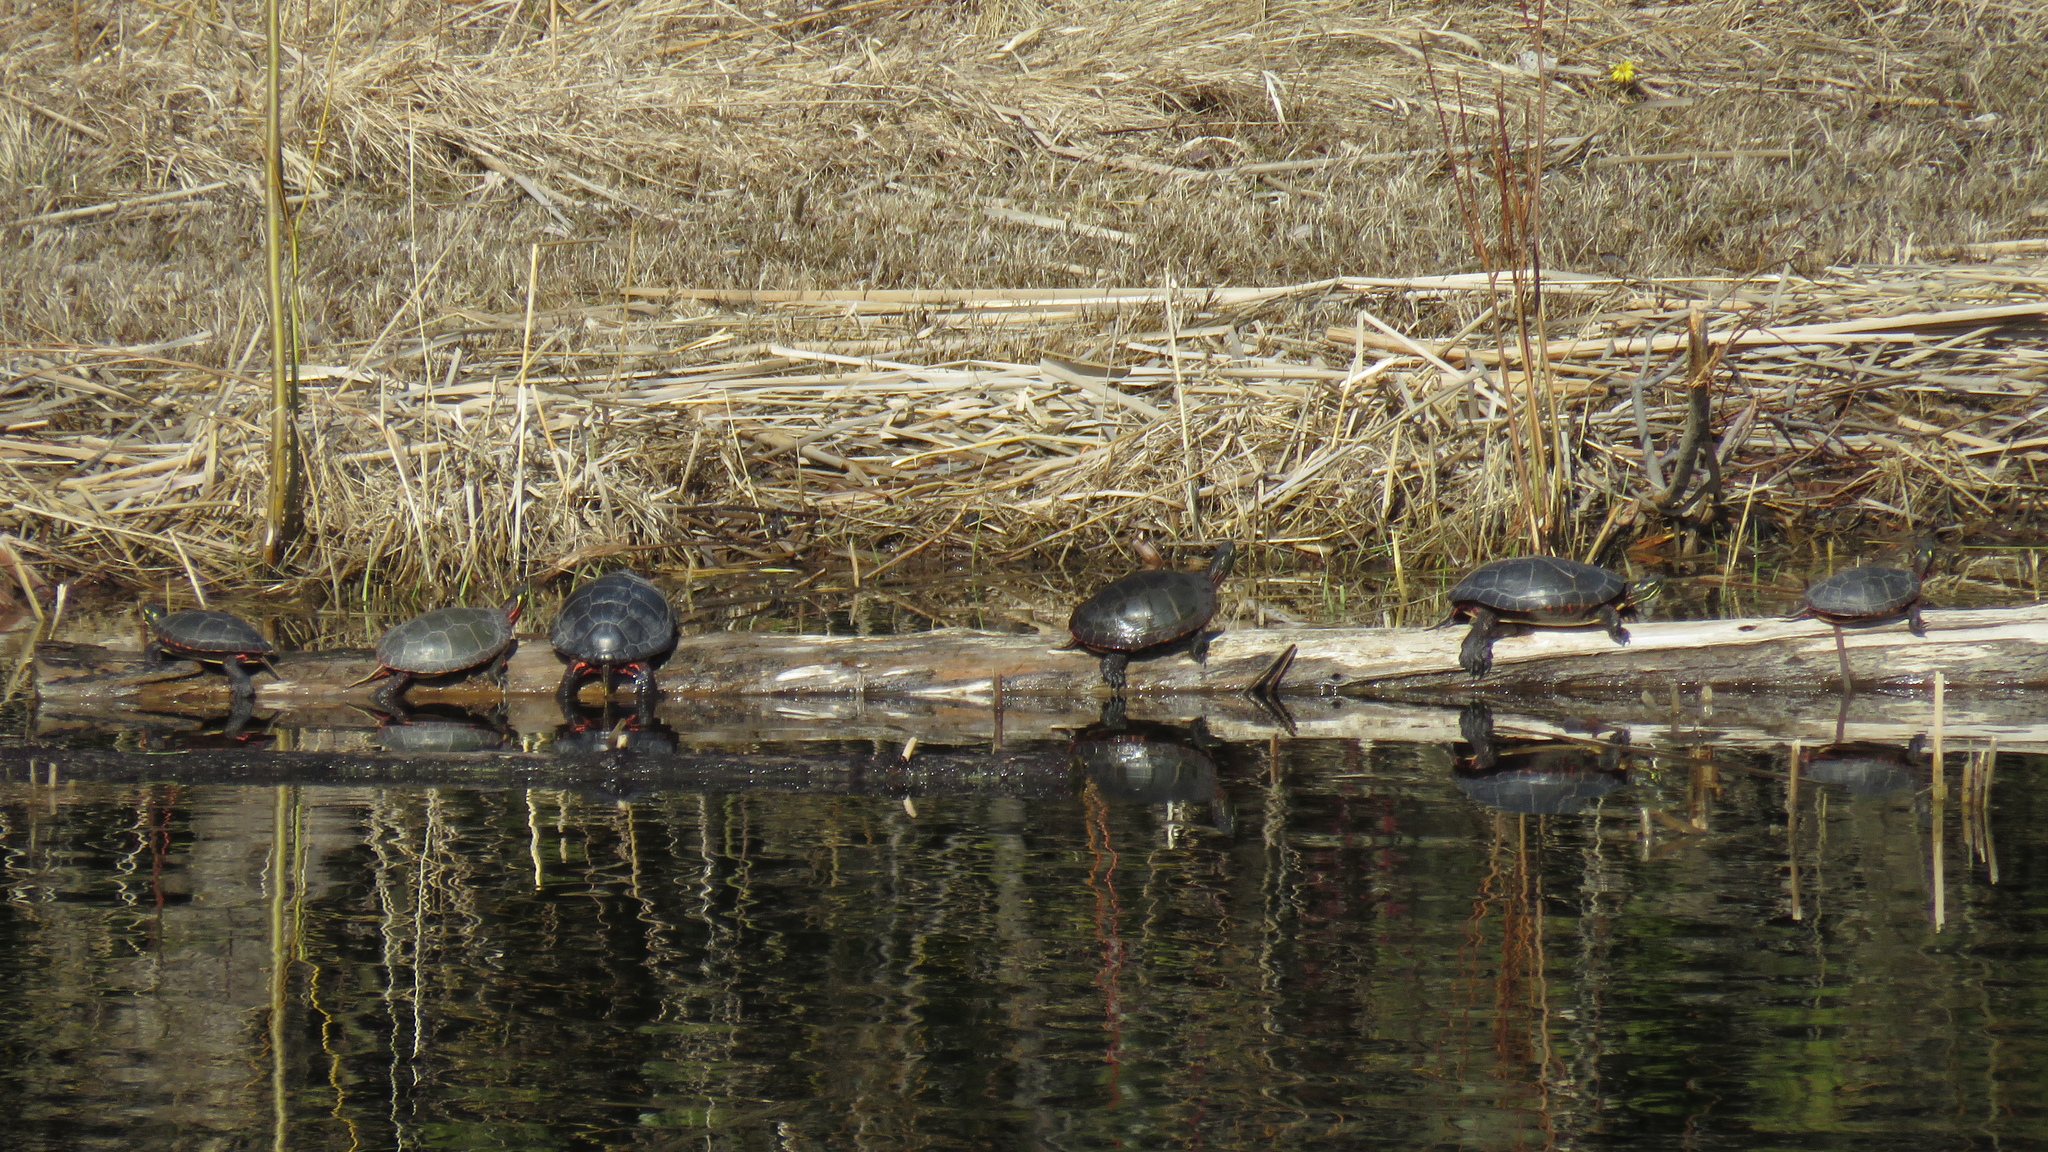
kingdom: Animalia
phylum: Chordata
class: Testudines
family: Emydidae
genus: Chrysemys
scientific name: Chrysemys picta
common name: Painted turtle
